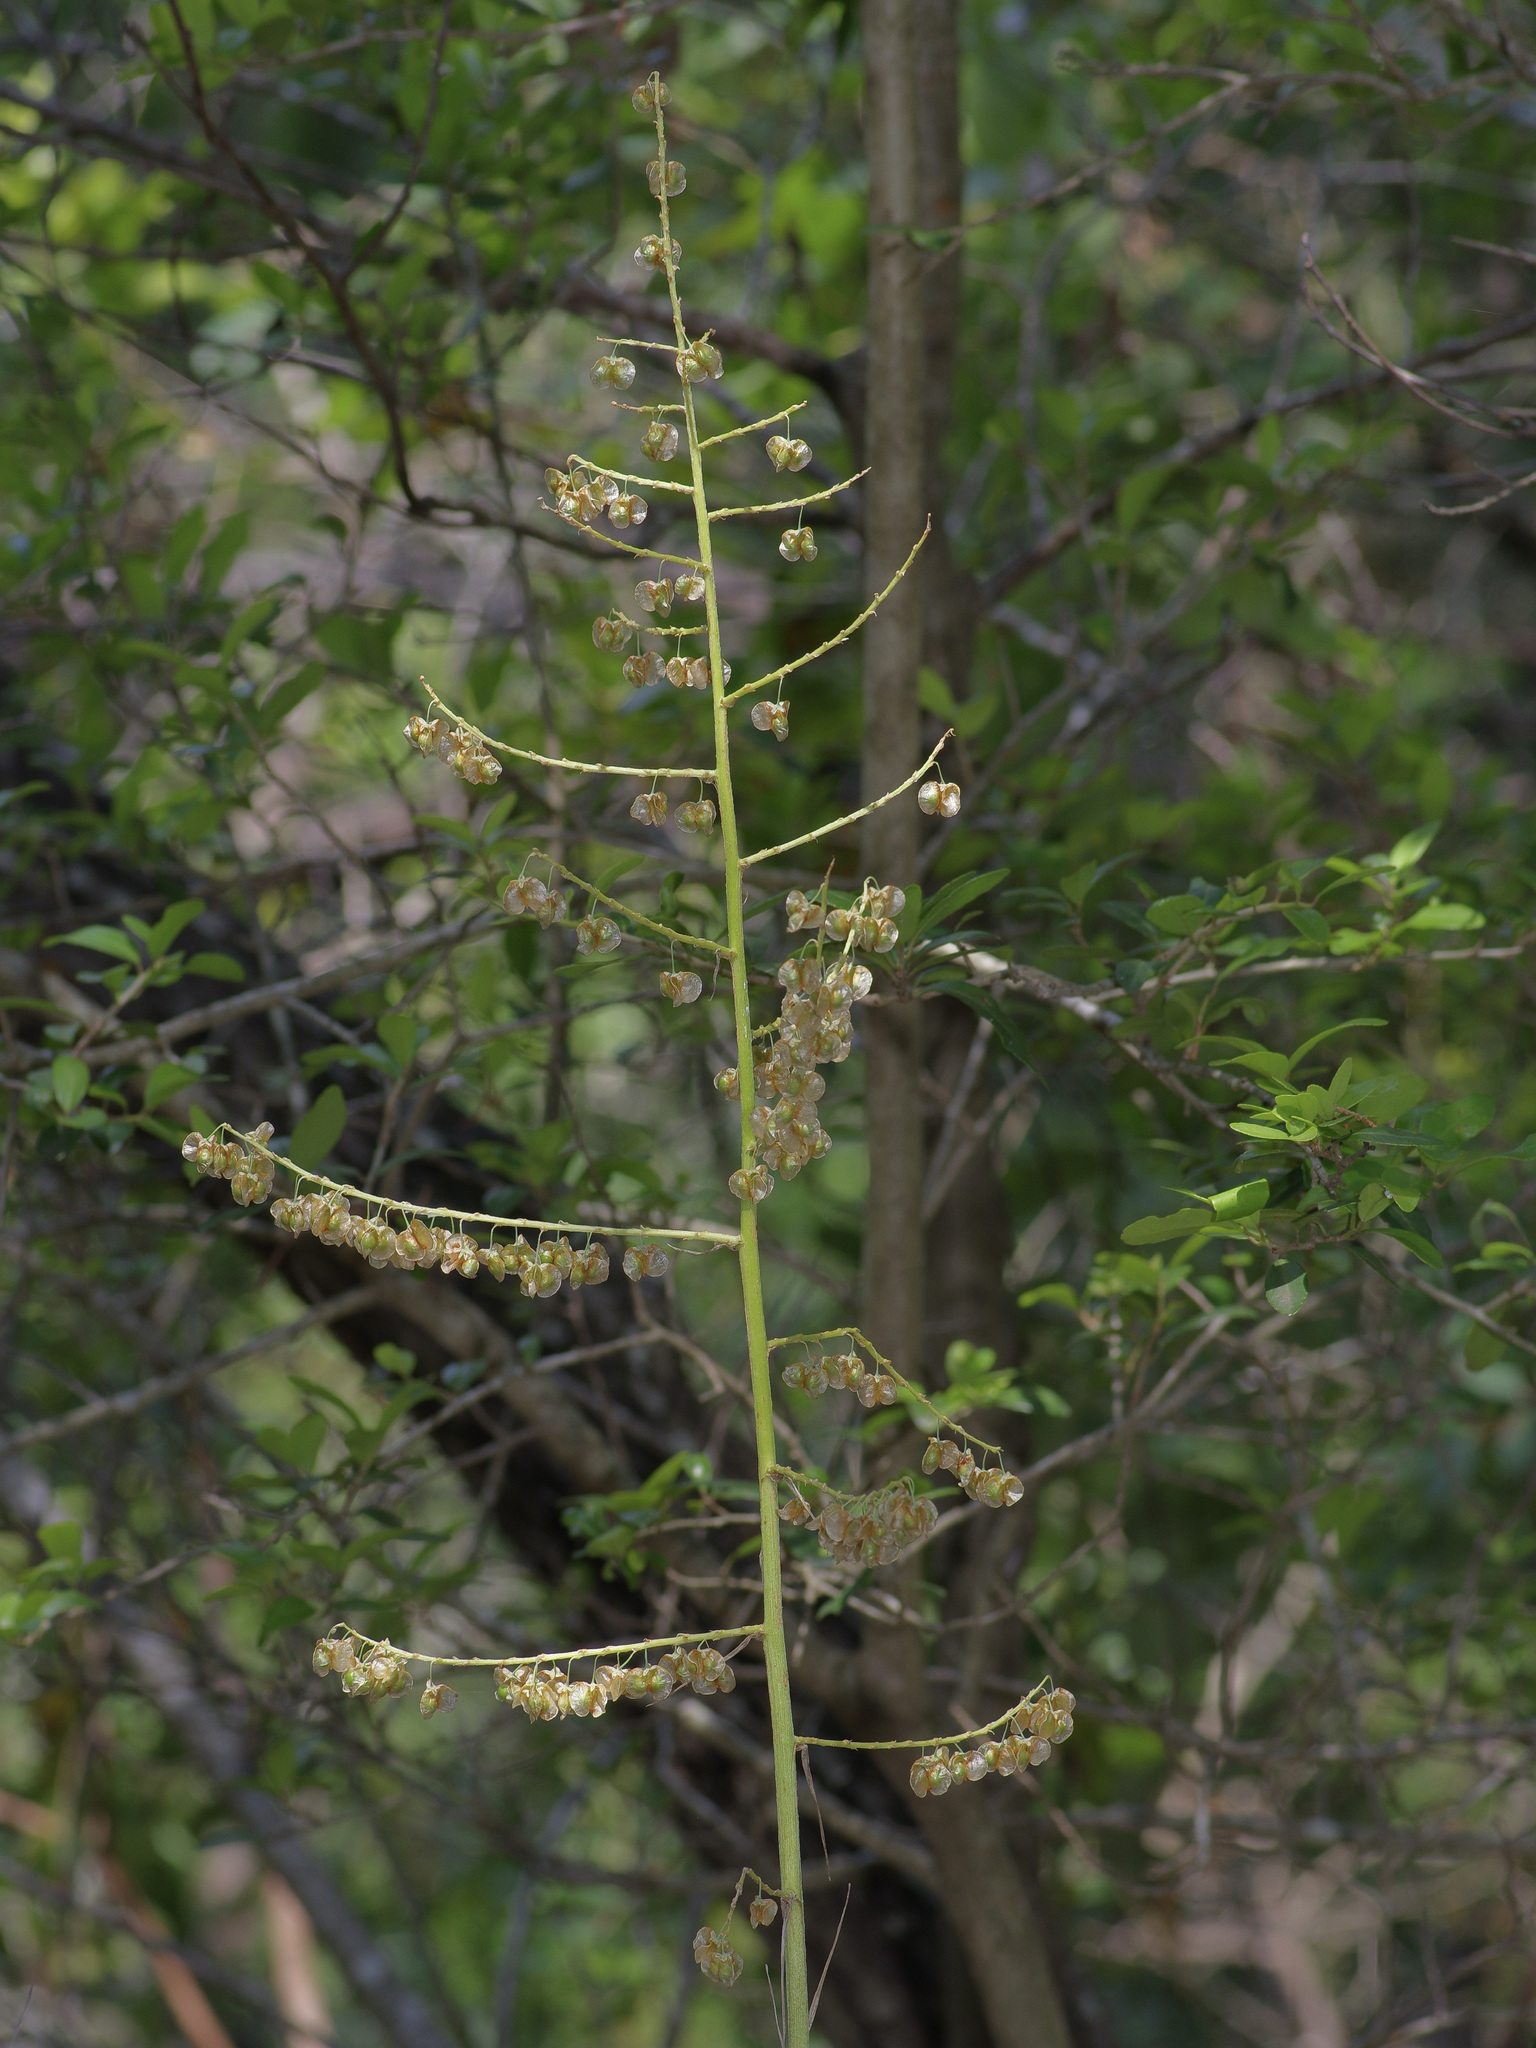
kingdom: Plantae
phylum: Tracheophyta
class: Liliopsida
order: Asparagales
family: Asparagaceae
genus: Nolina
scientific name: Nolina lindheimeriana
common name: Lindheimer's bear-grass
